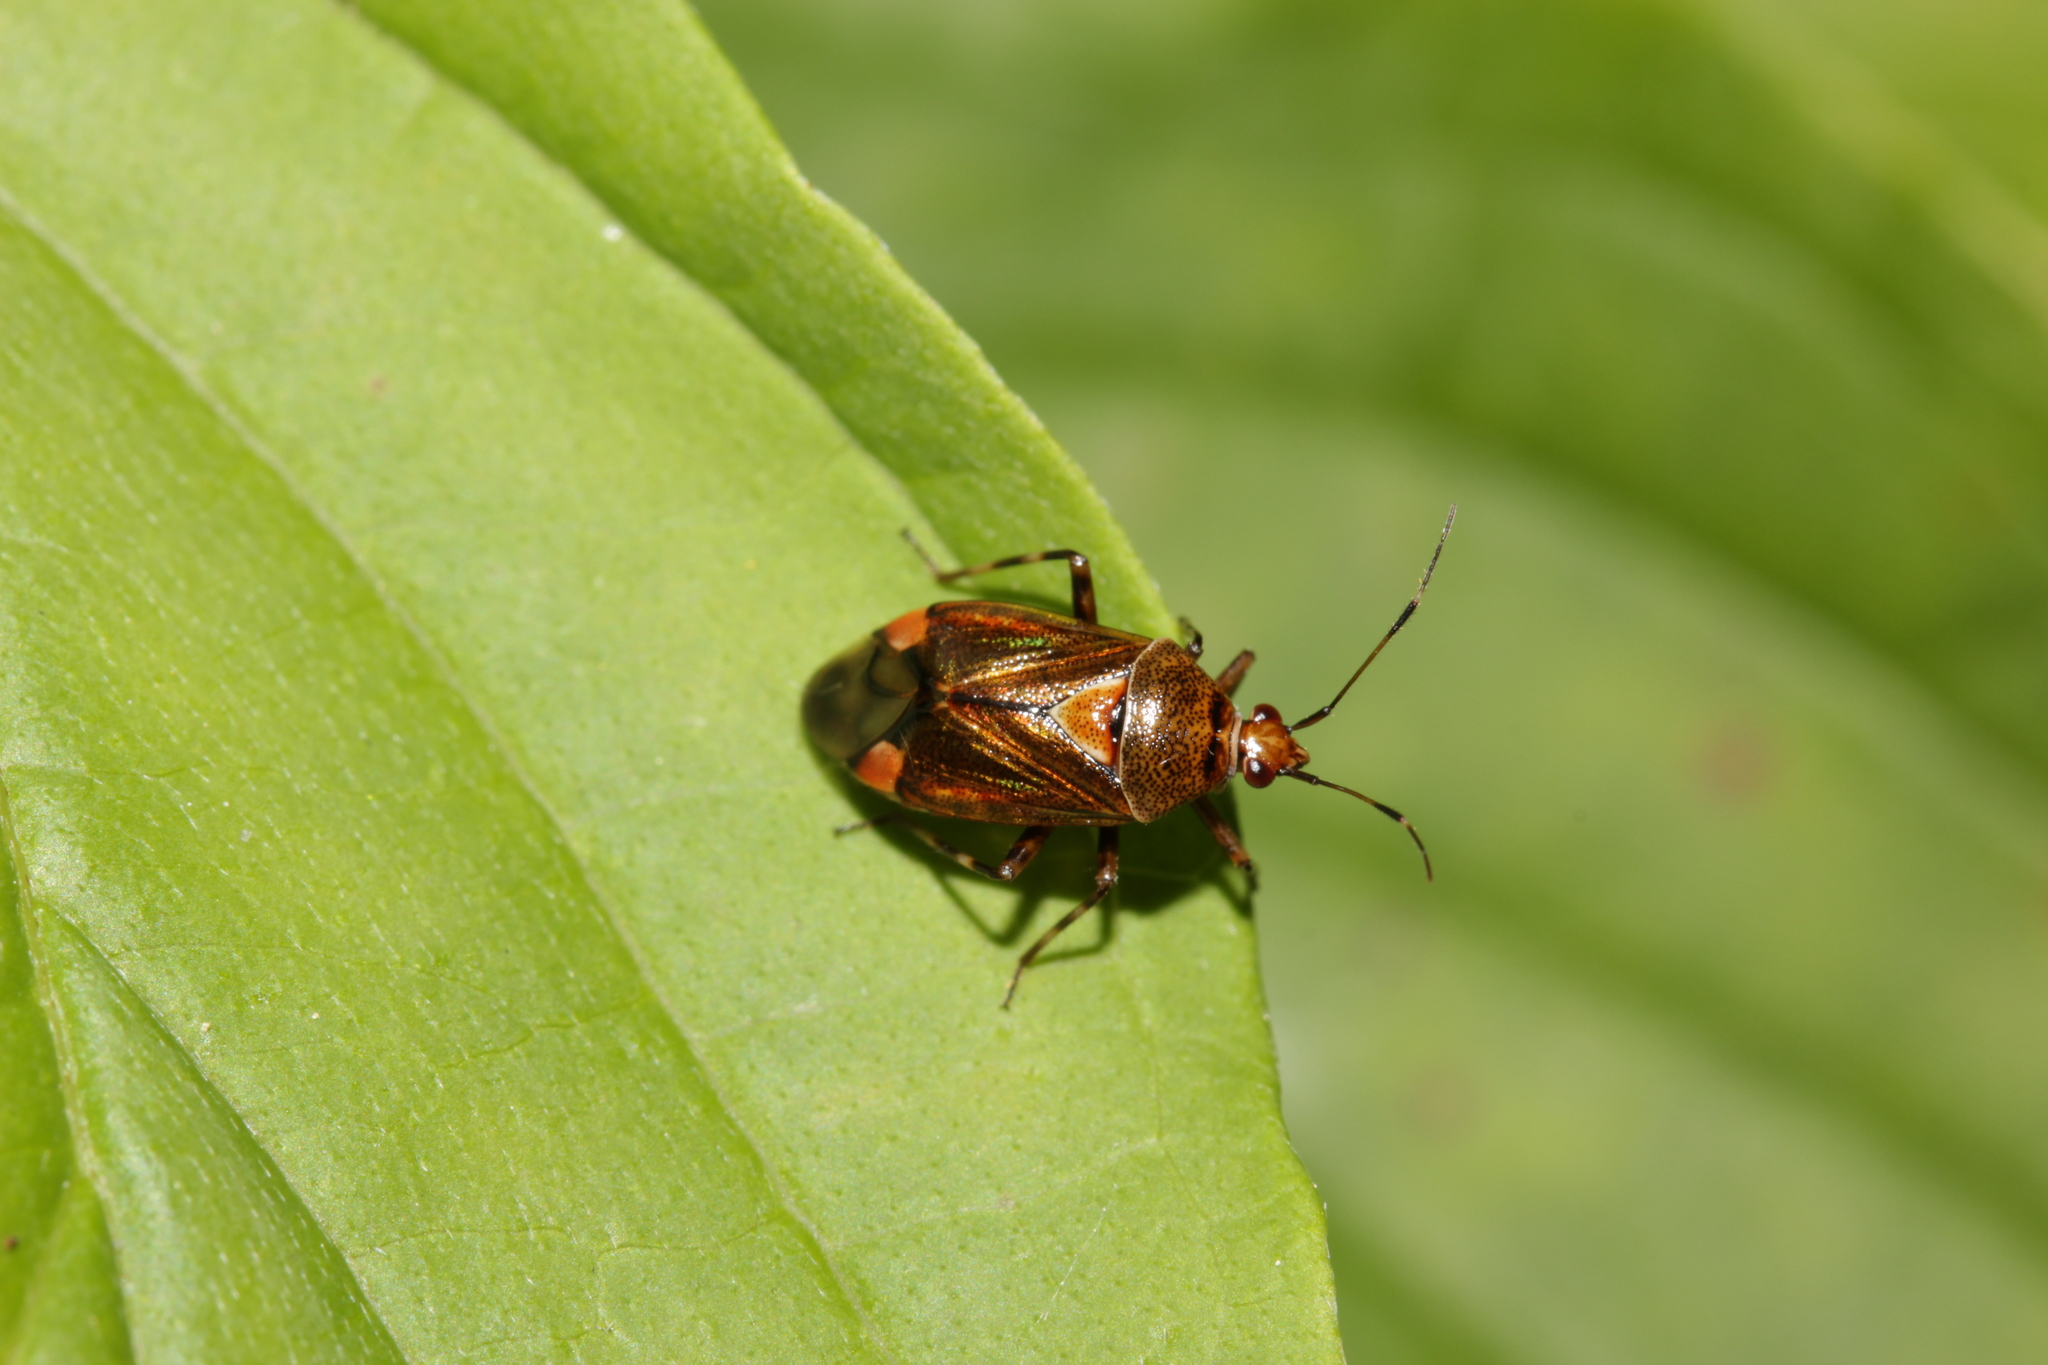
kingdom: Animalia
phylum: Arthropoda
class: Insecta
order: Hemiptera
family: Miridae
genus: Deraeocoris
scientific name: Deraeocoris flavilinea
